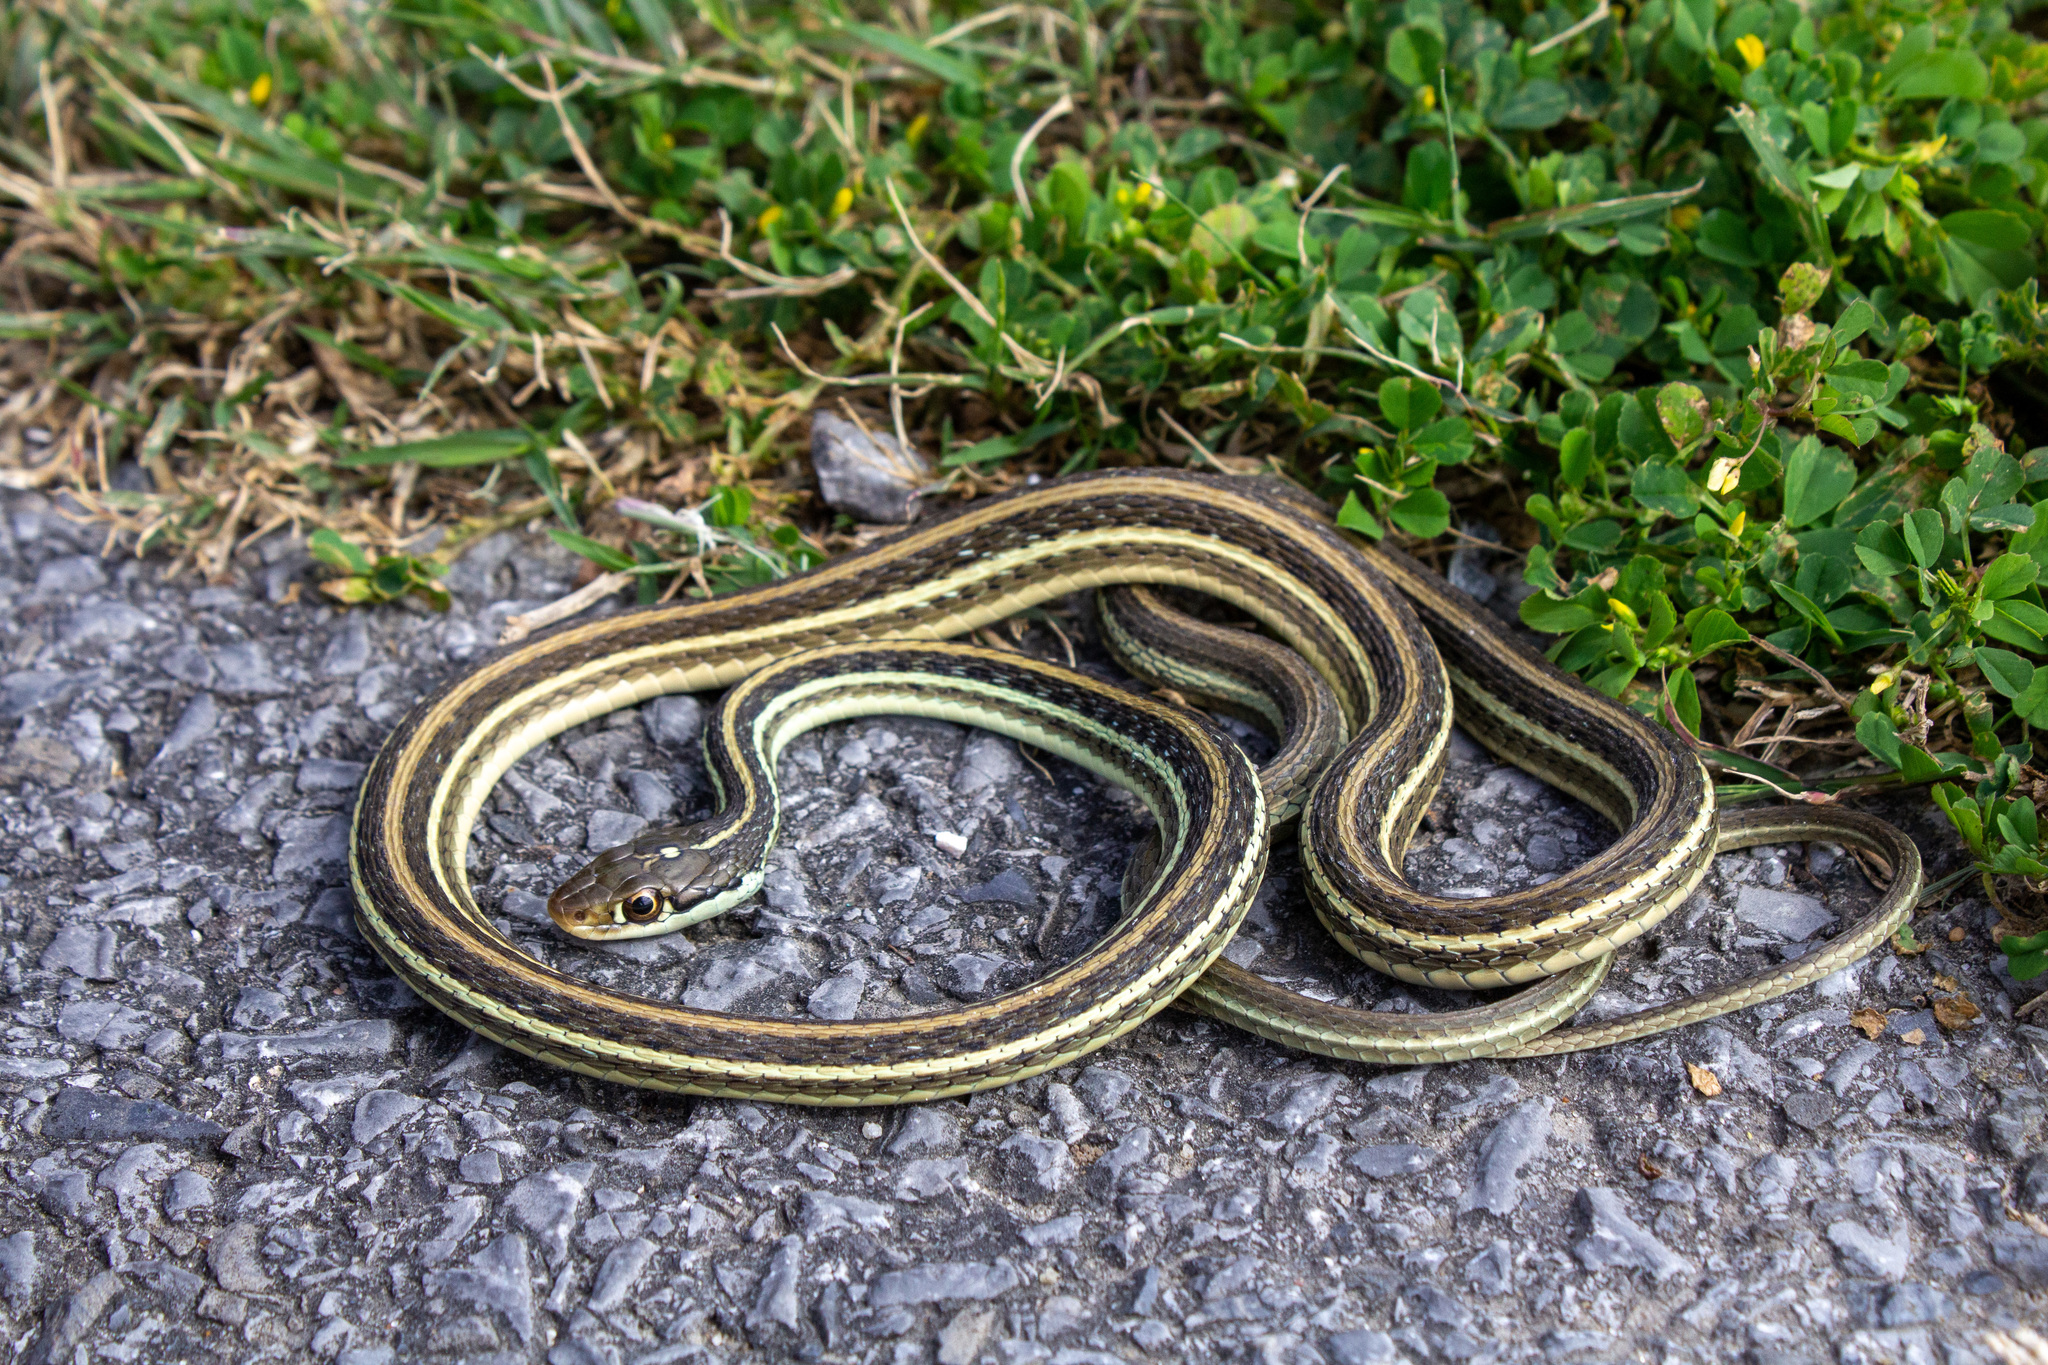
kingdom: Animalia
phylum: Chordata
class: Squamata
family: Colubridae
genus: Thamnophis
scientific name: Thamnophis proximus
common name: Western ribbon snake
